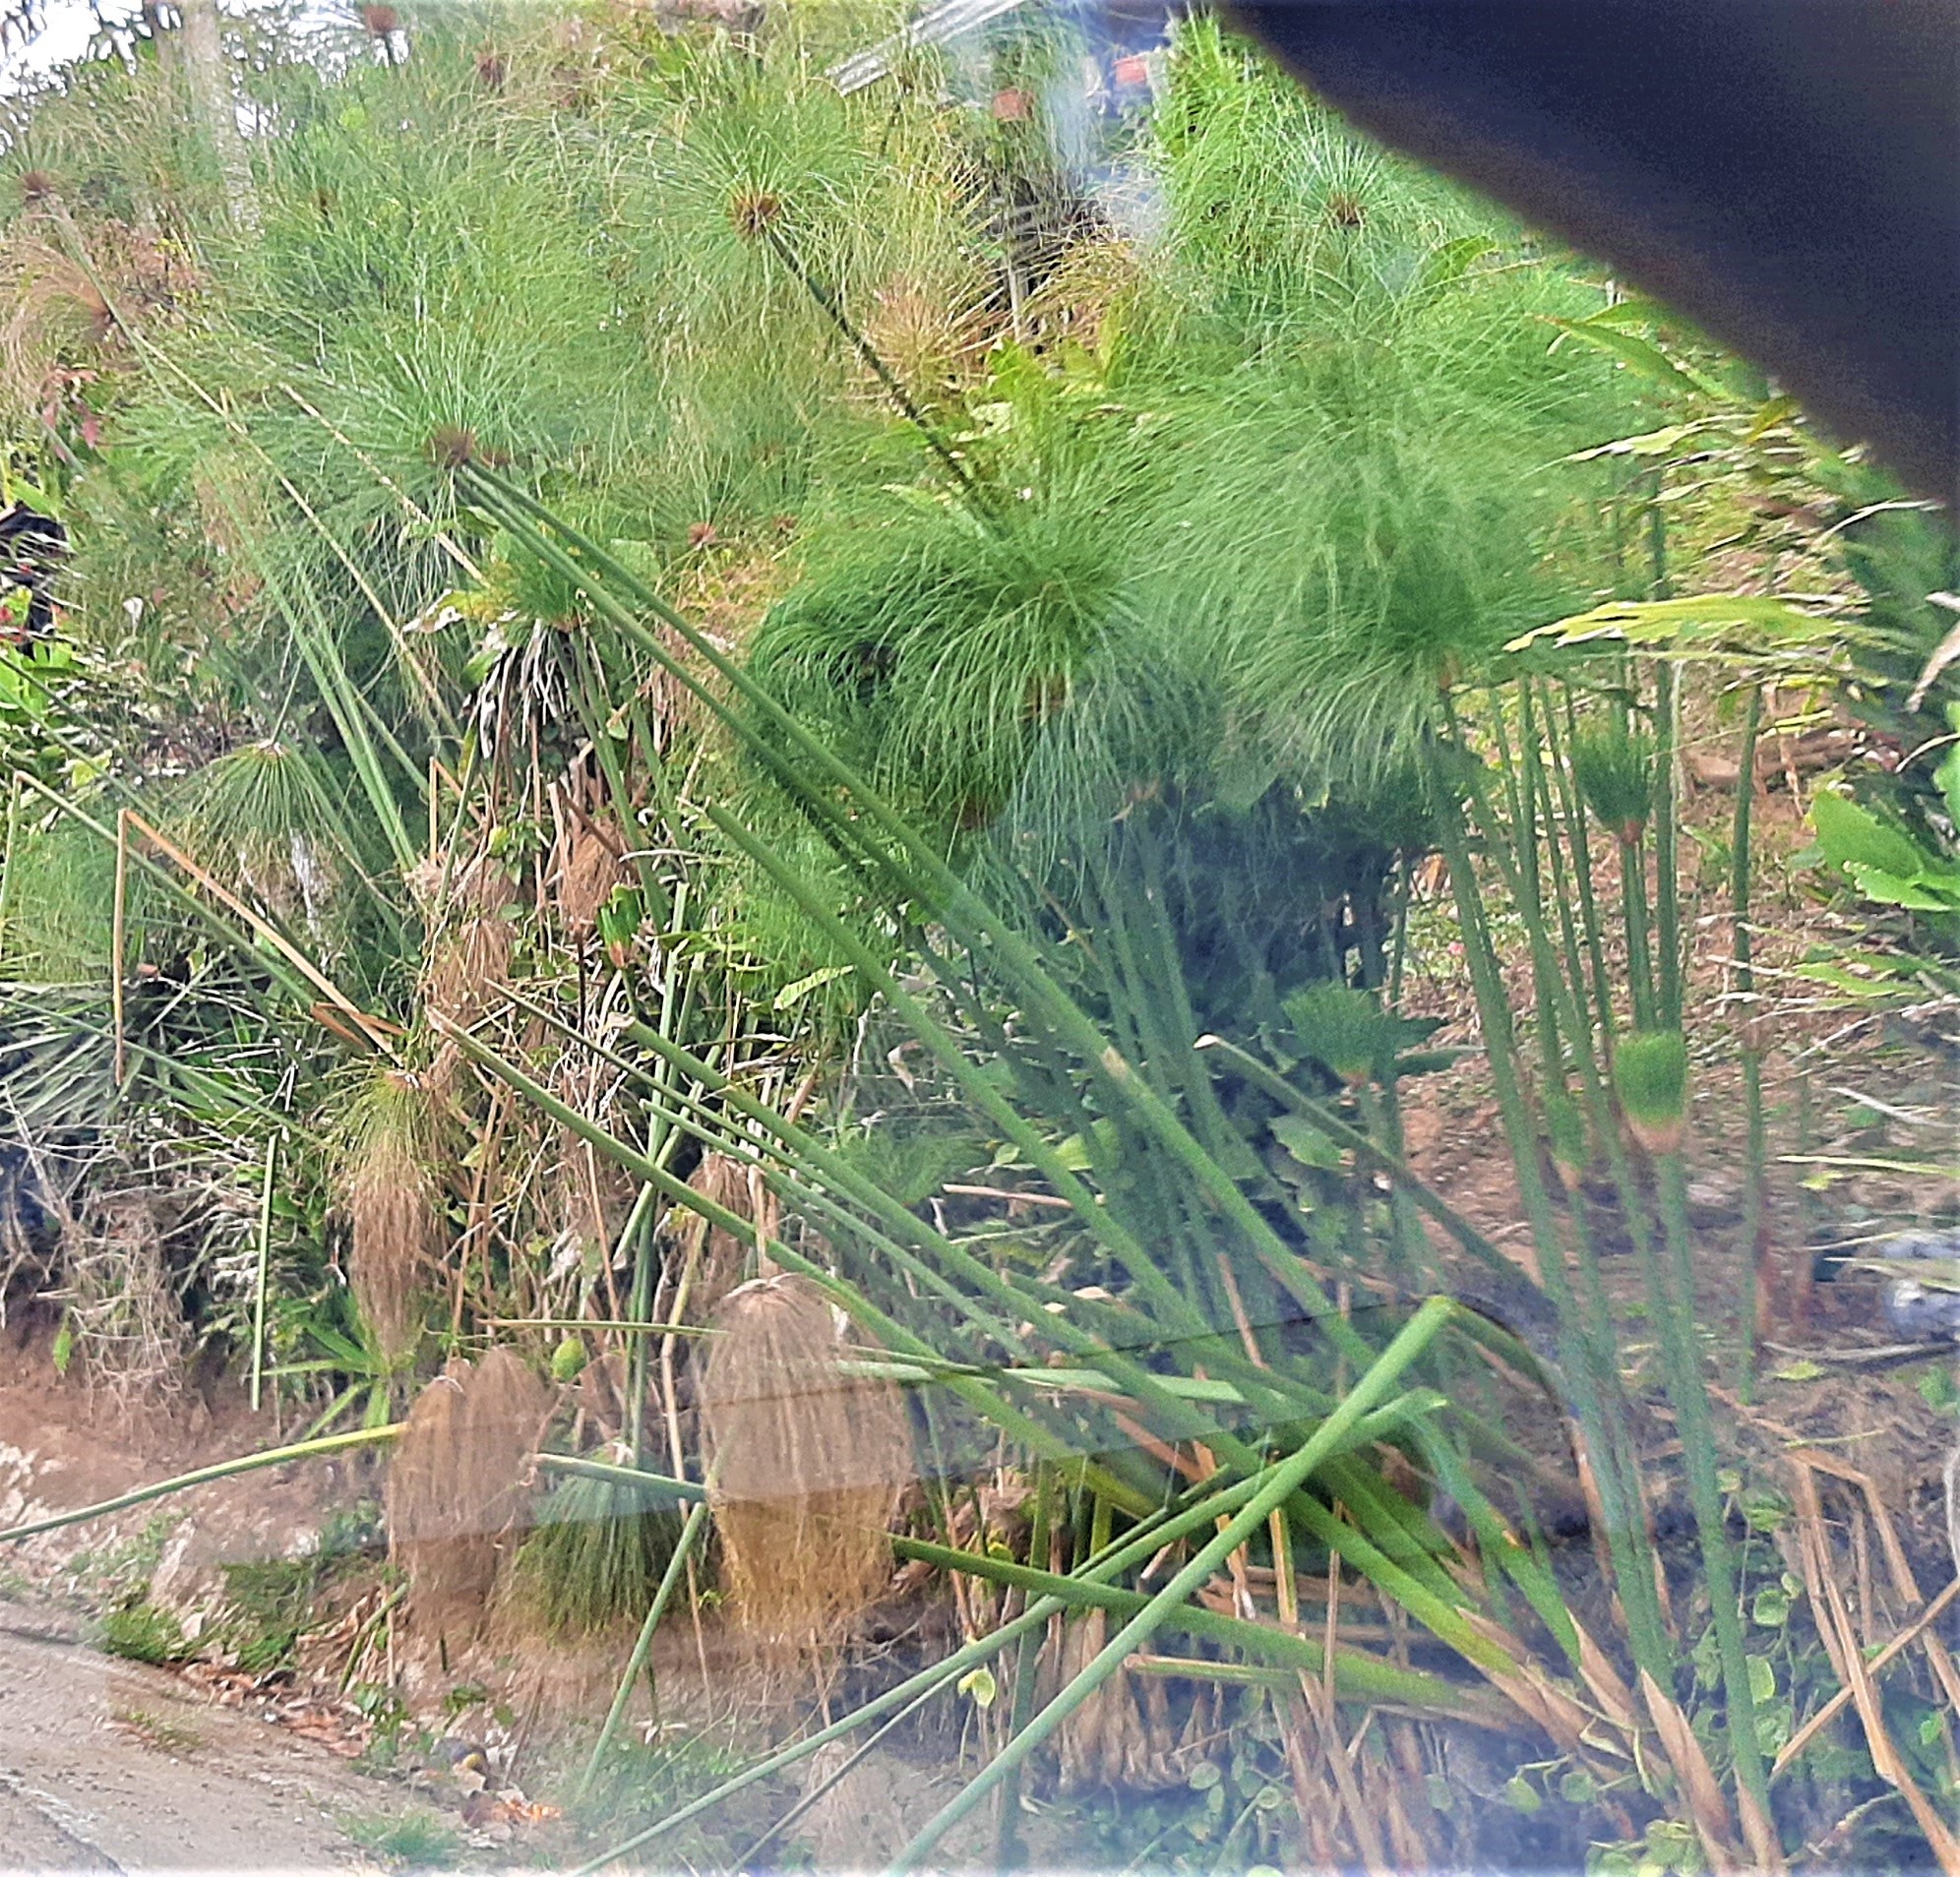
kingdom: Plantae
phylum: Tracheophyta
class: Liliopsida
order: Poales
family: Cyperaceae
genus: Cyperus
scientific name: Cyperus papyrus
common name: Papyrus
